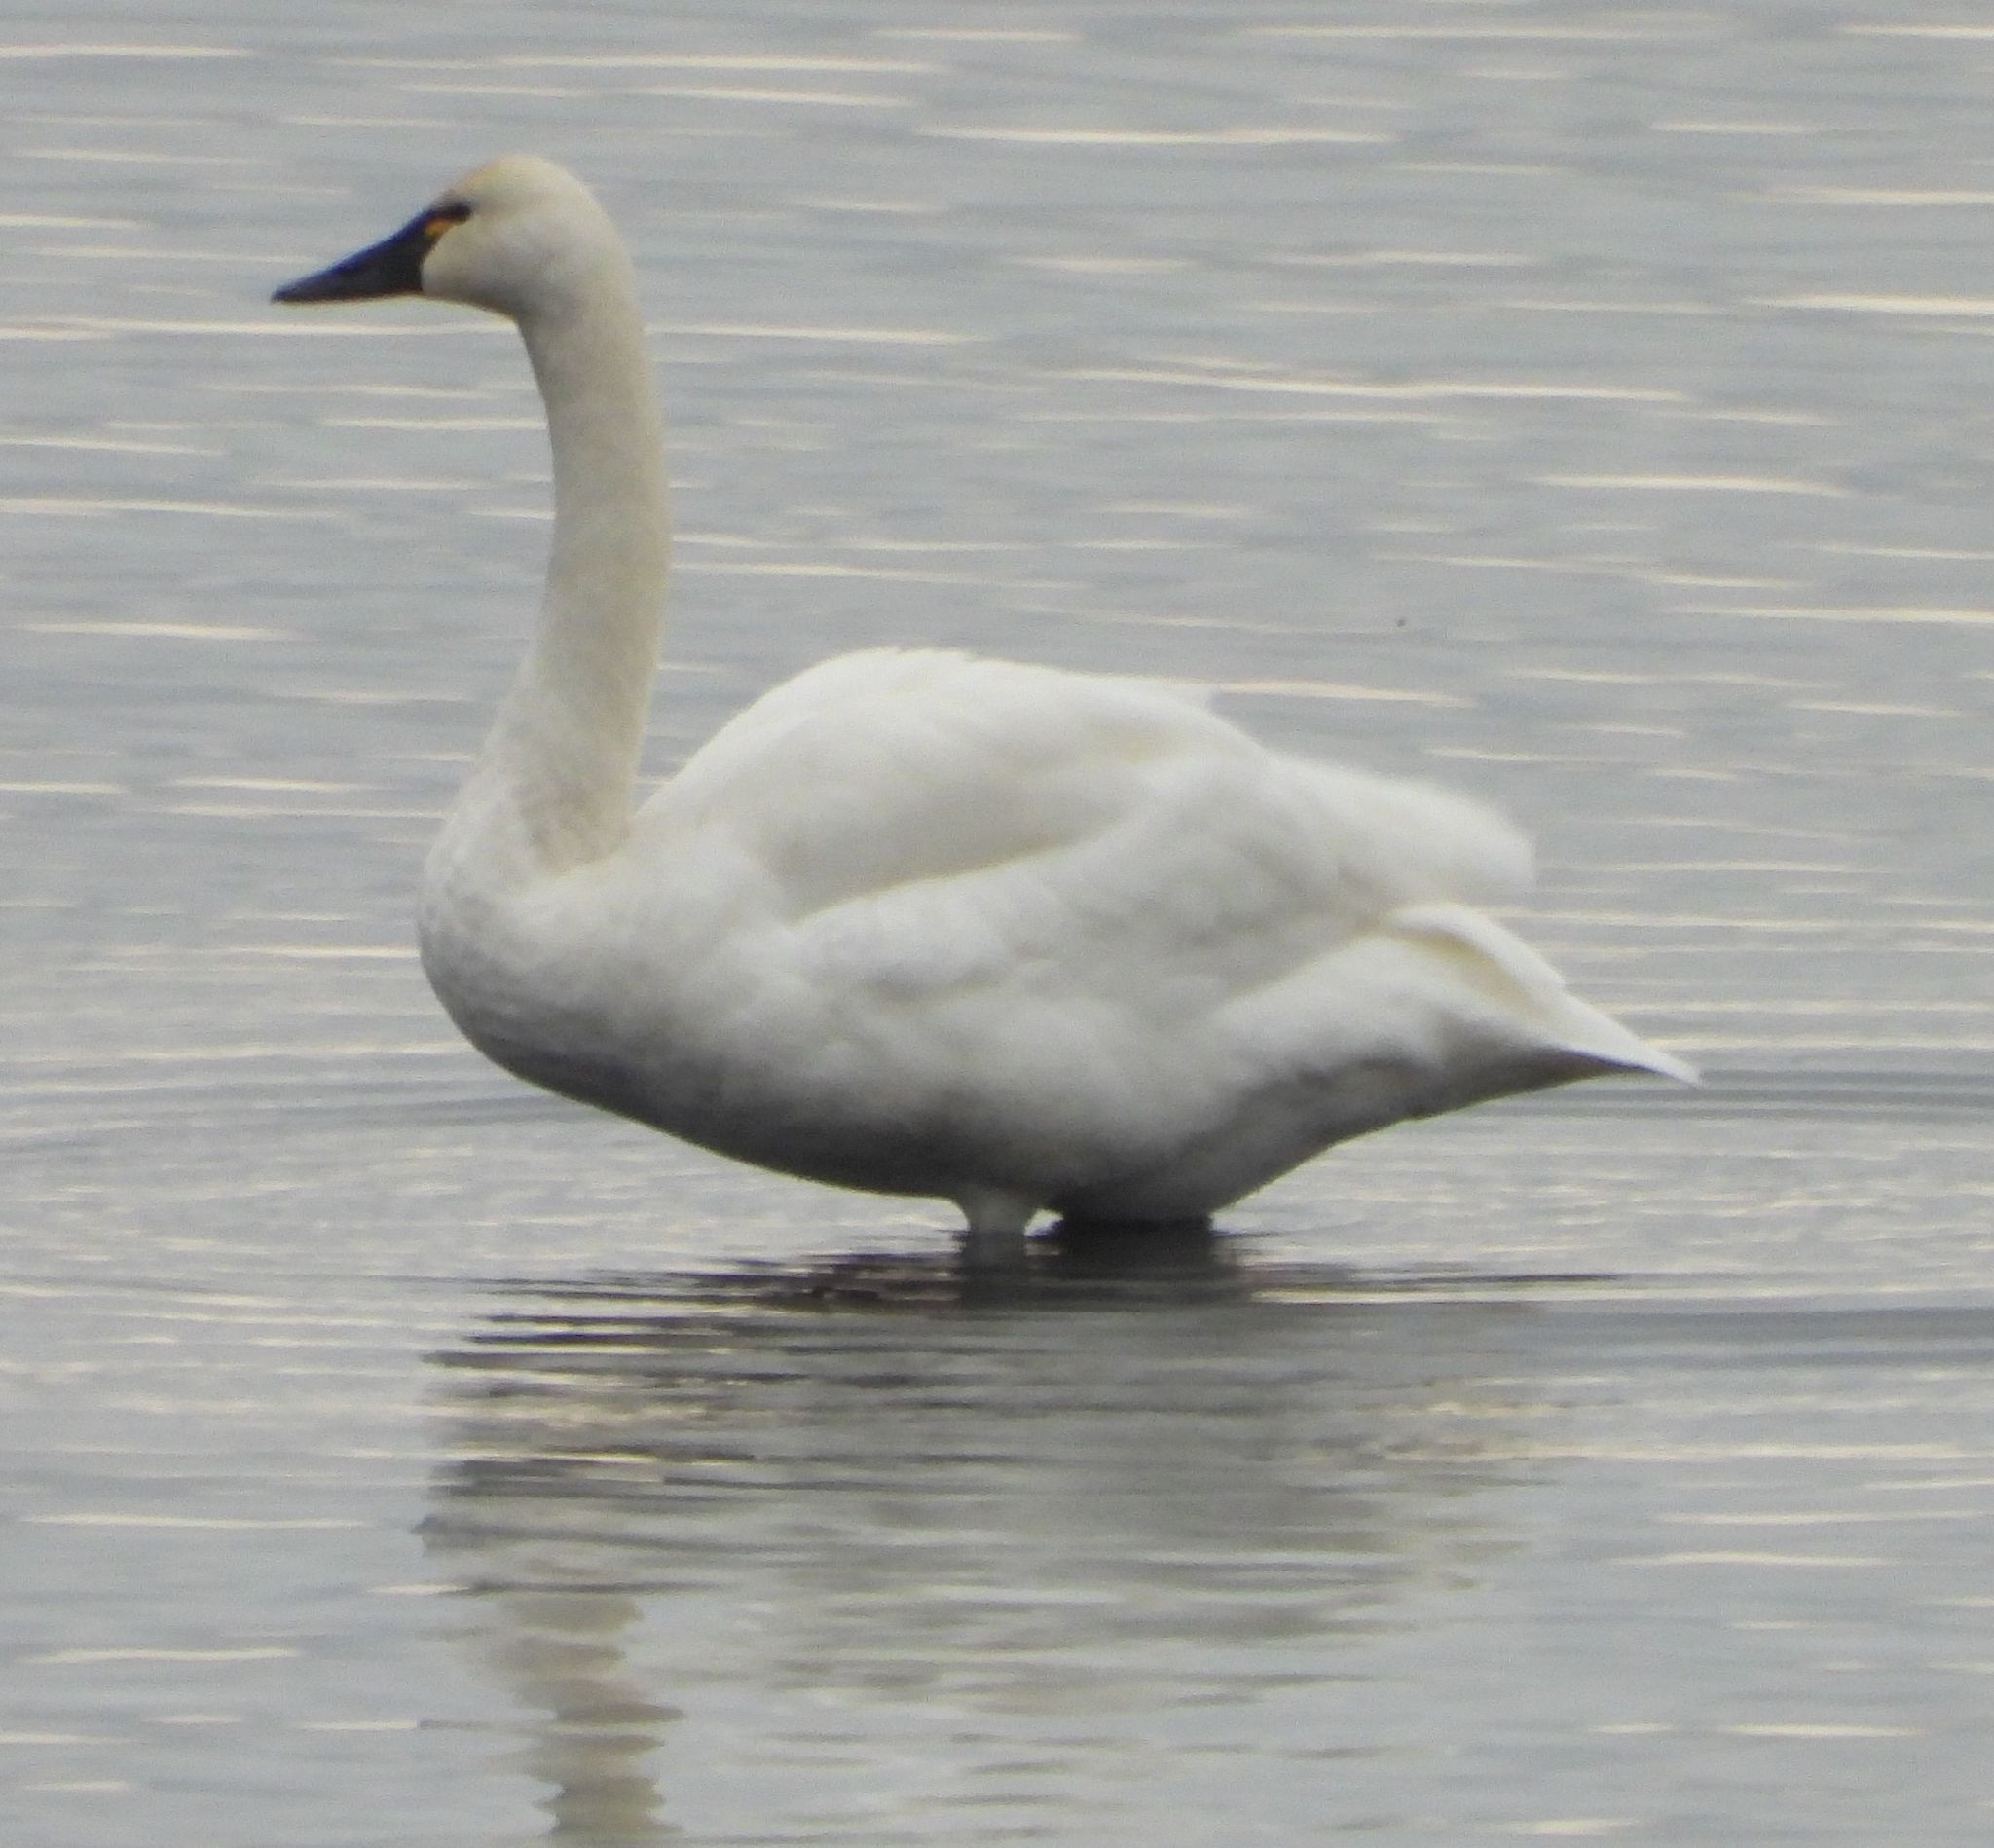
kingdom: Animalia
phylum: Chordata
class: Aves
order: Anseriformes
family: Anatidae
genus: Cygnus
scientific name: Cygnus columbianus
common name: Tundra swan
